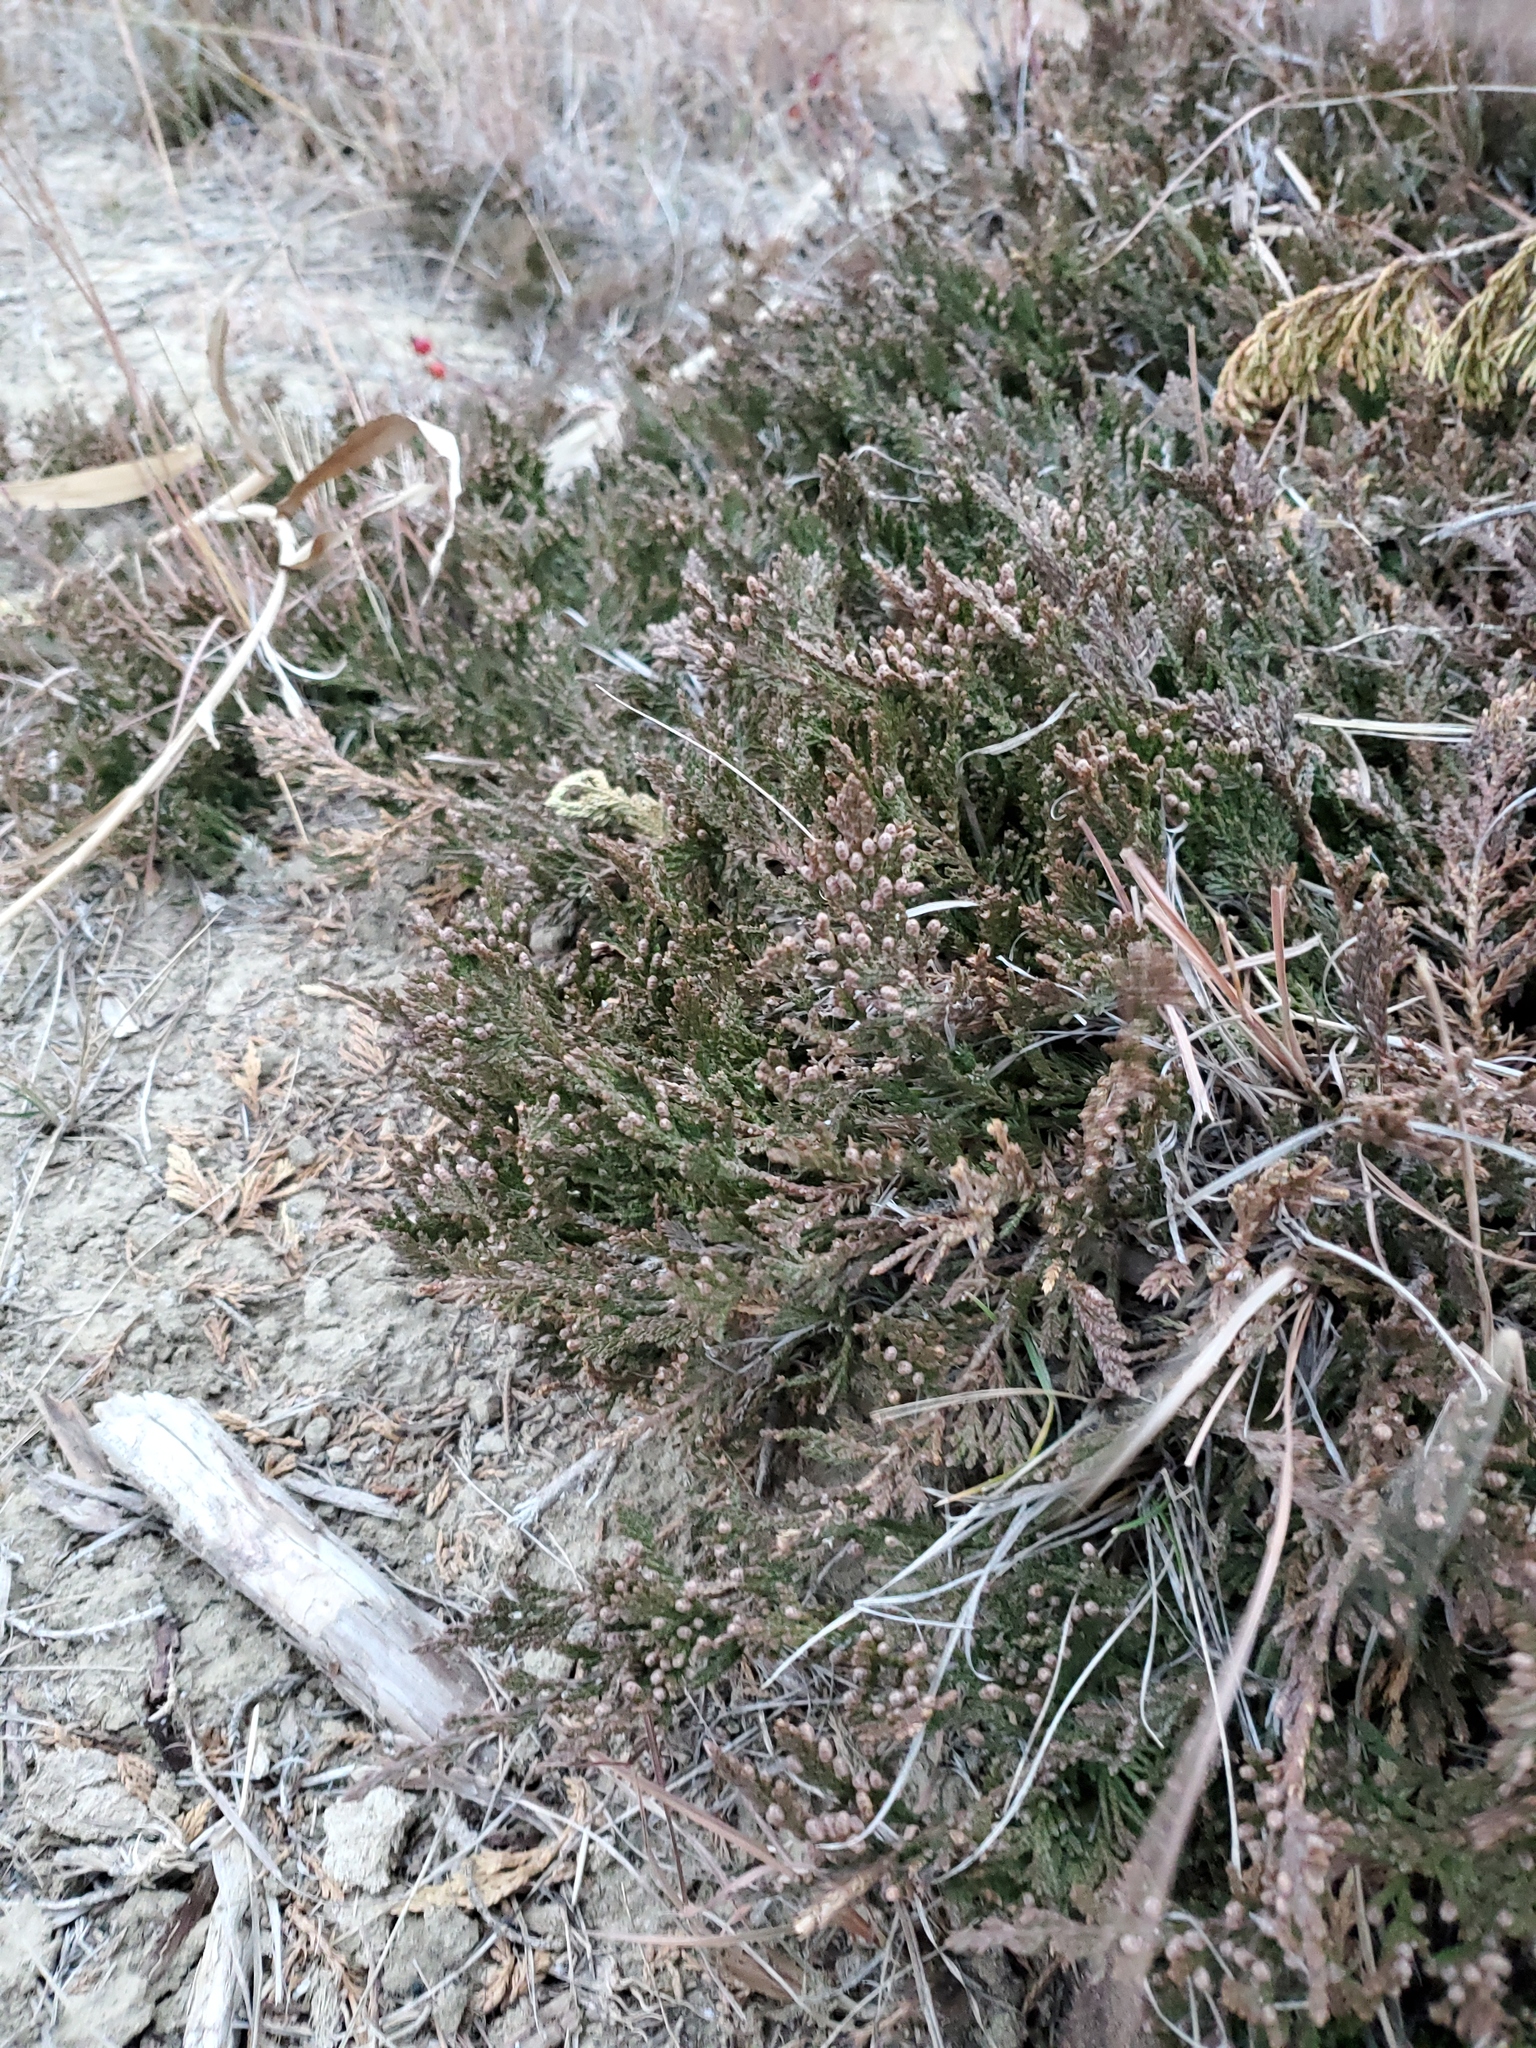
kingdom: Plantae
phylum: Tracheophyta
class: Pinopsida
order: Pinales
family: Cupressaceae
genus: Juniperus
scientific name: Juniperus horizontalis
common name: Creeping juniper
